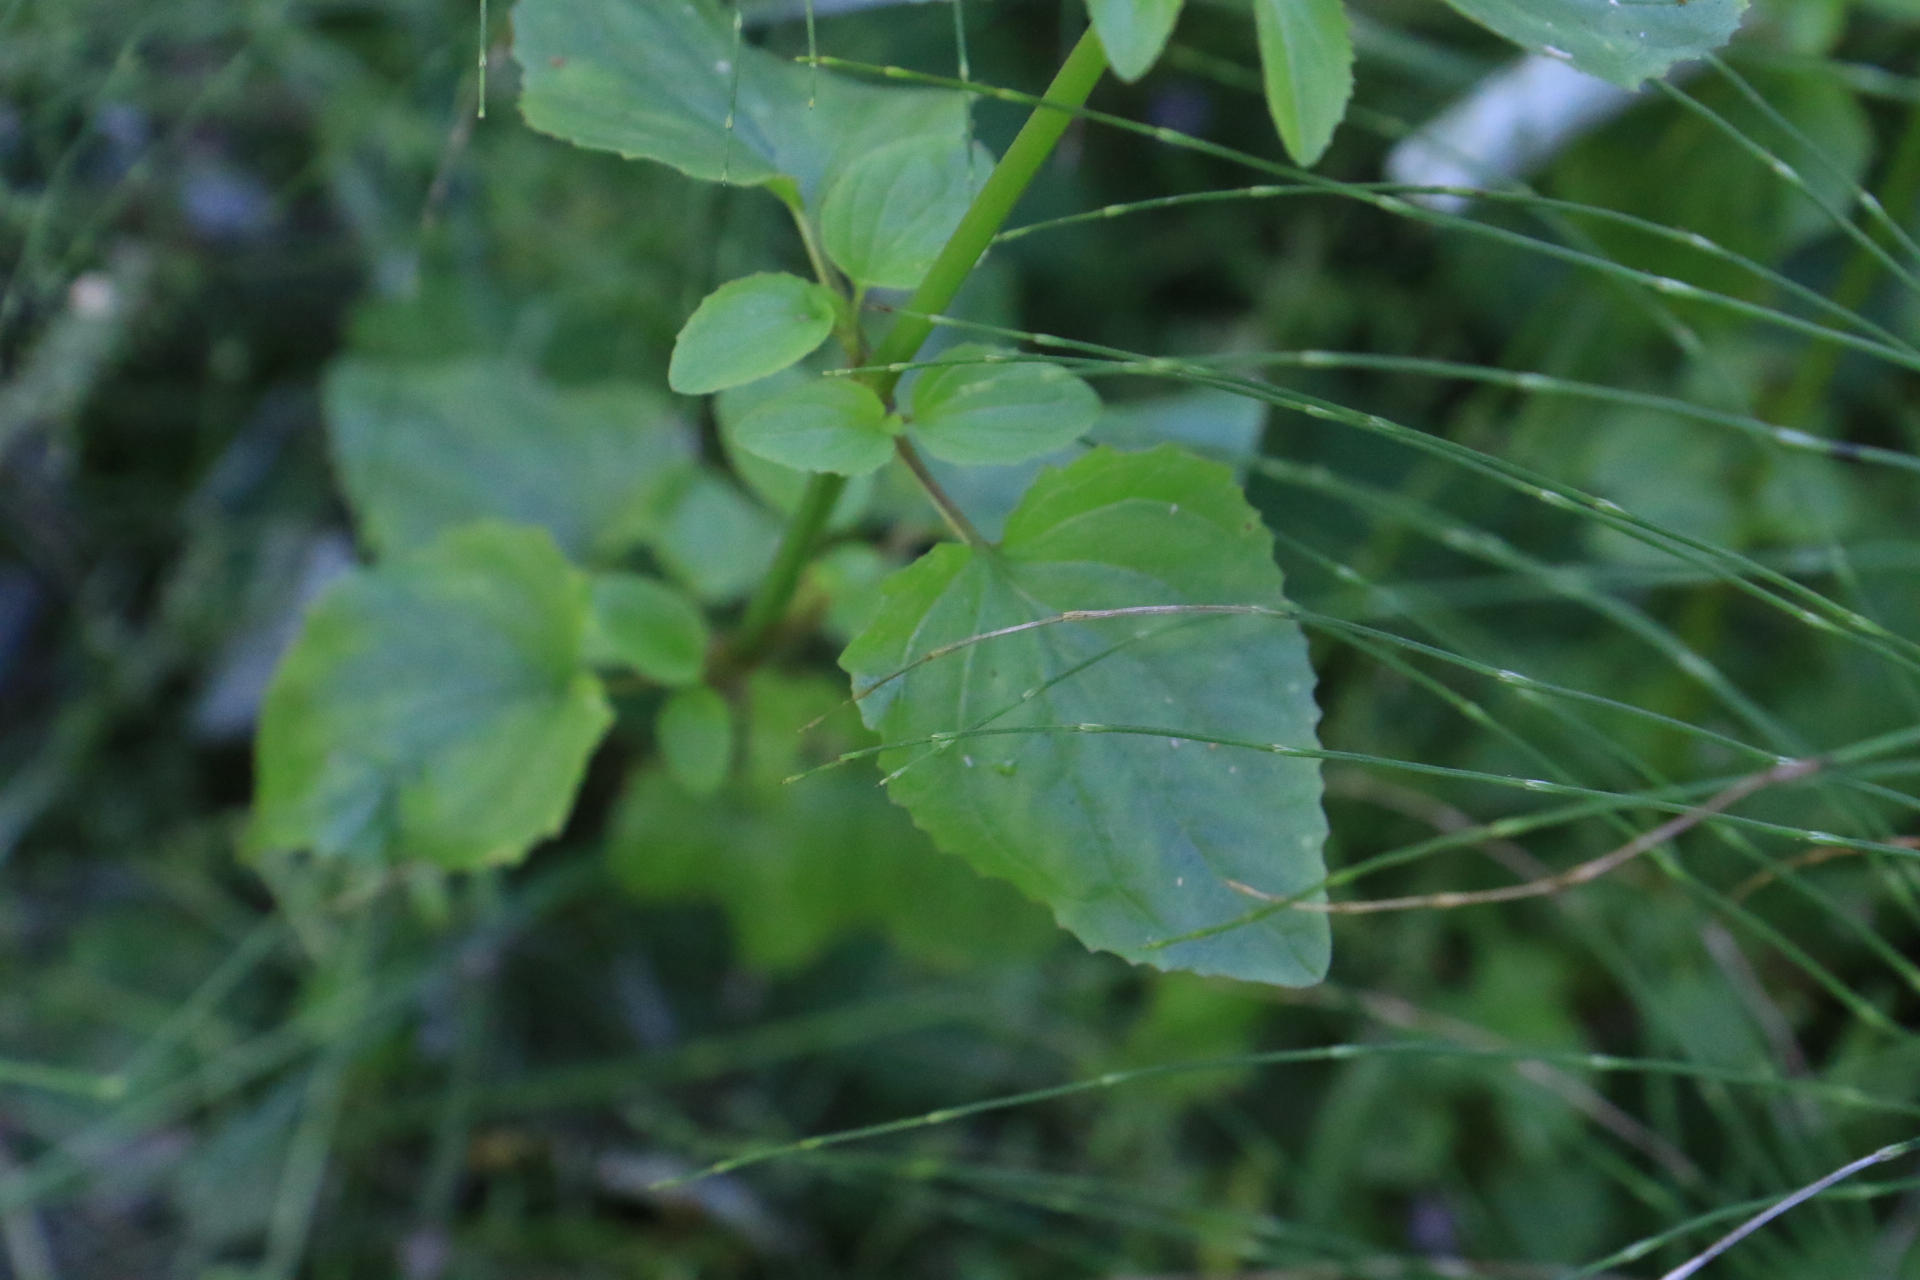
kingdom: Plantae
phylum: Tracheophyta
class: Magnoliopsida
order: Lamiales
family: Phrymaceae
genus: Erythranthe
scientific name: Erythranthe decora
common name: Mannered monkeyflower
